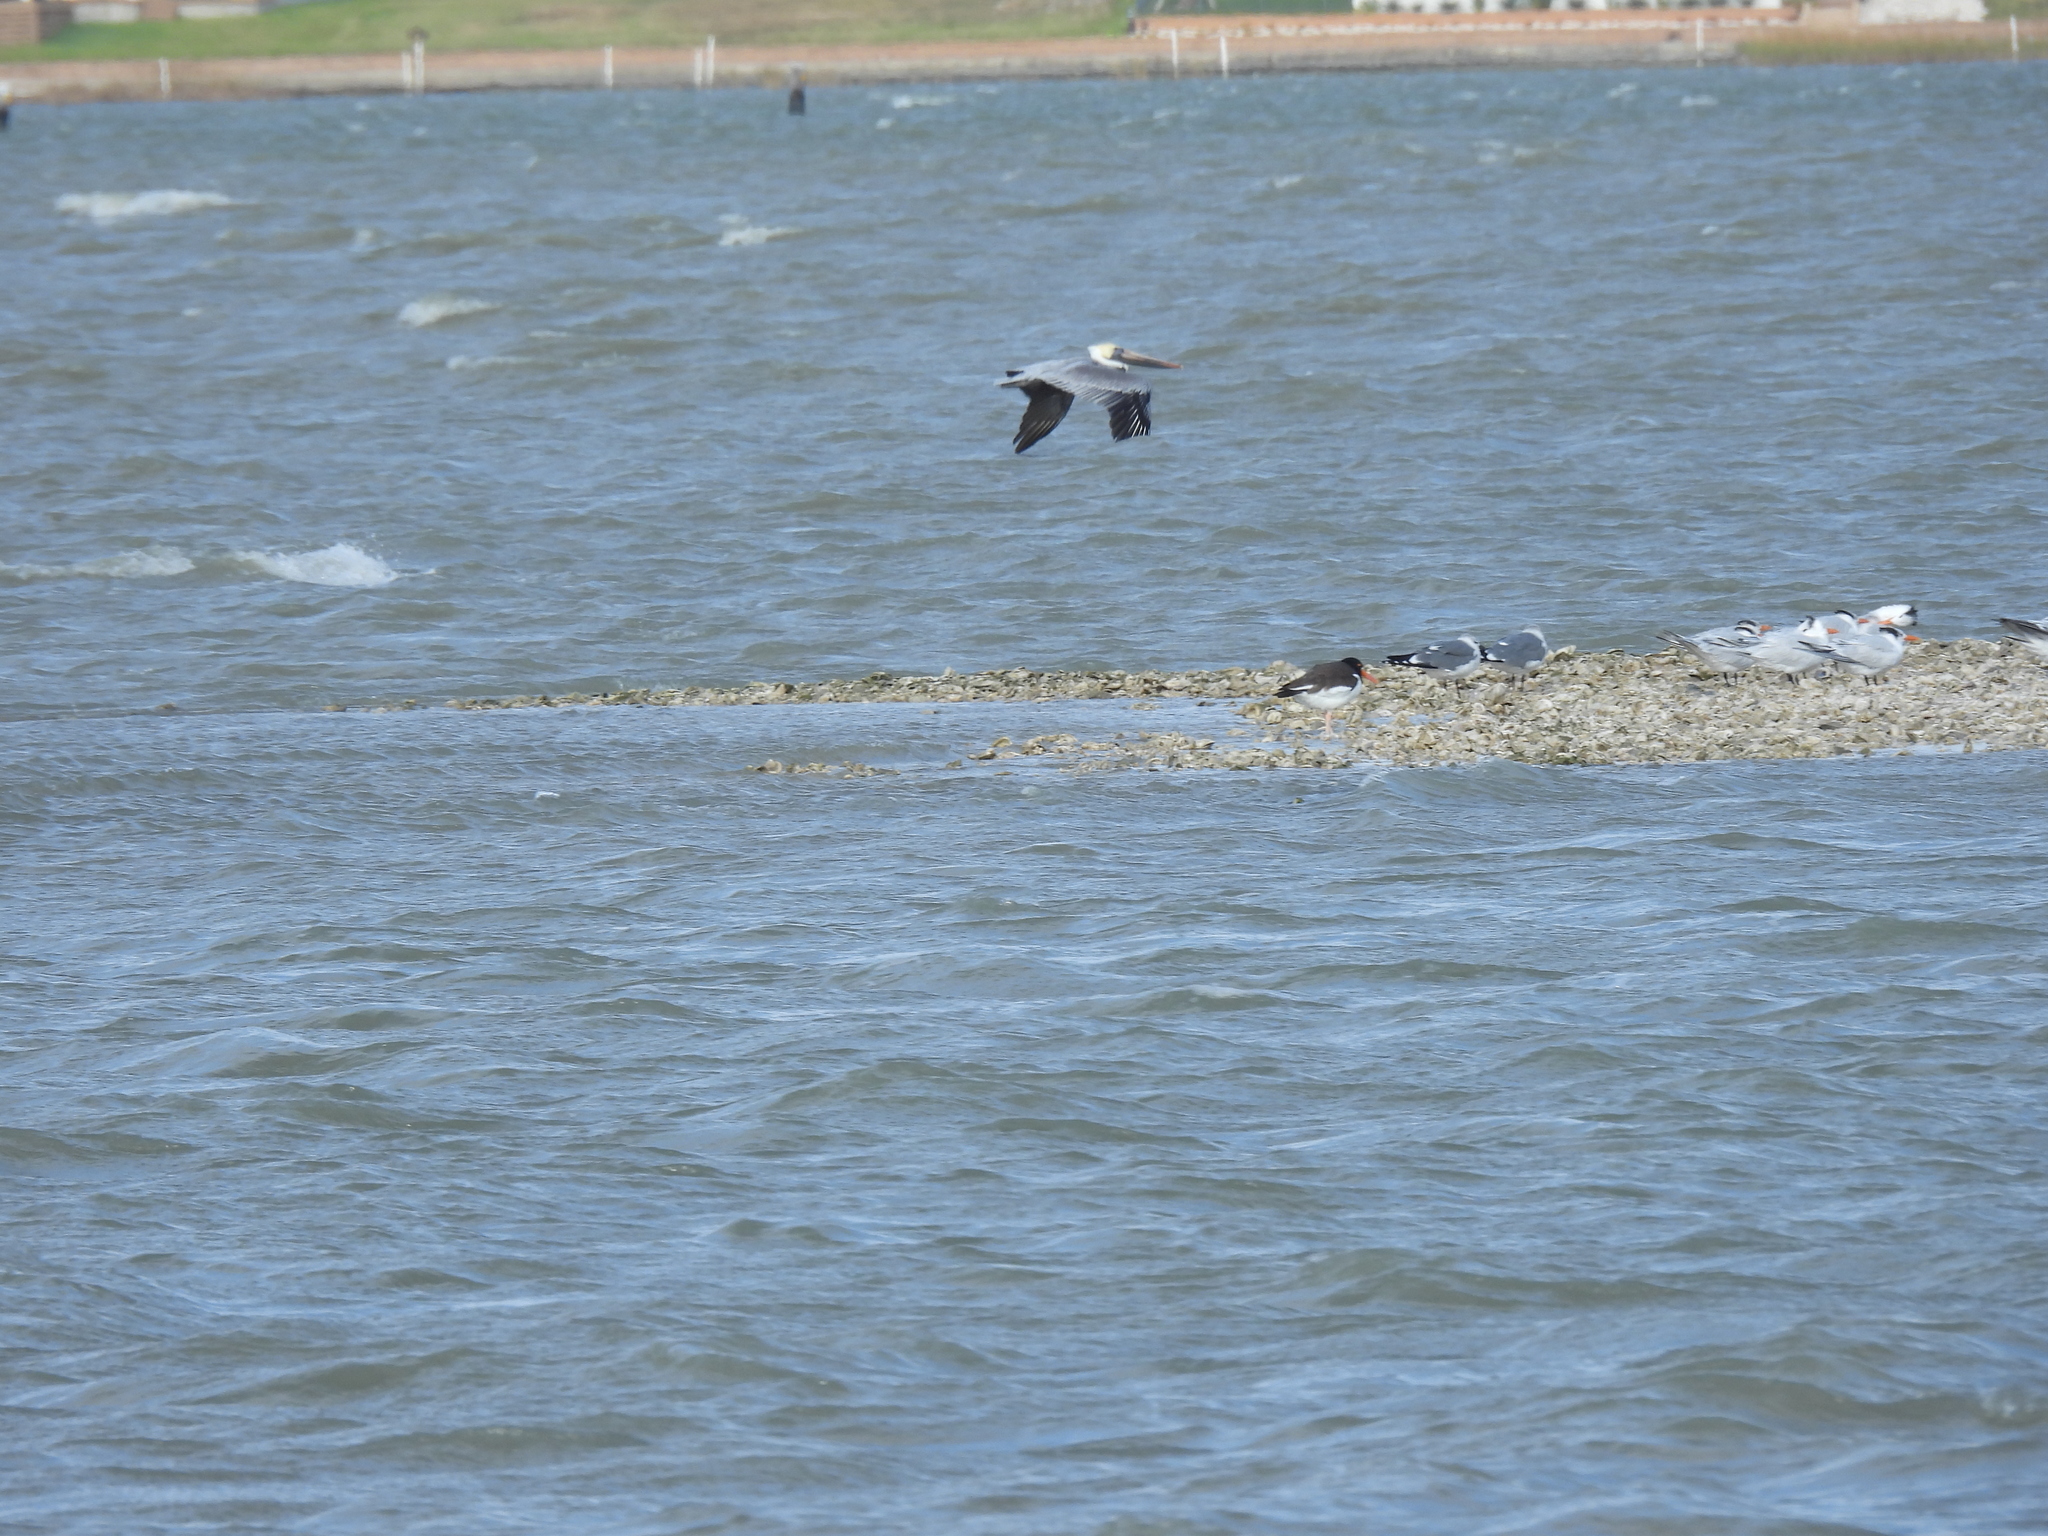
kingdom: Animalia
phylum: Chordata
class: Aves
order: Charadriiformes
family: Laridae
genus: Thalasseus
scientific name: Thalasseus maximus
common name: Royal tern
